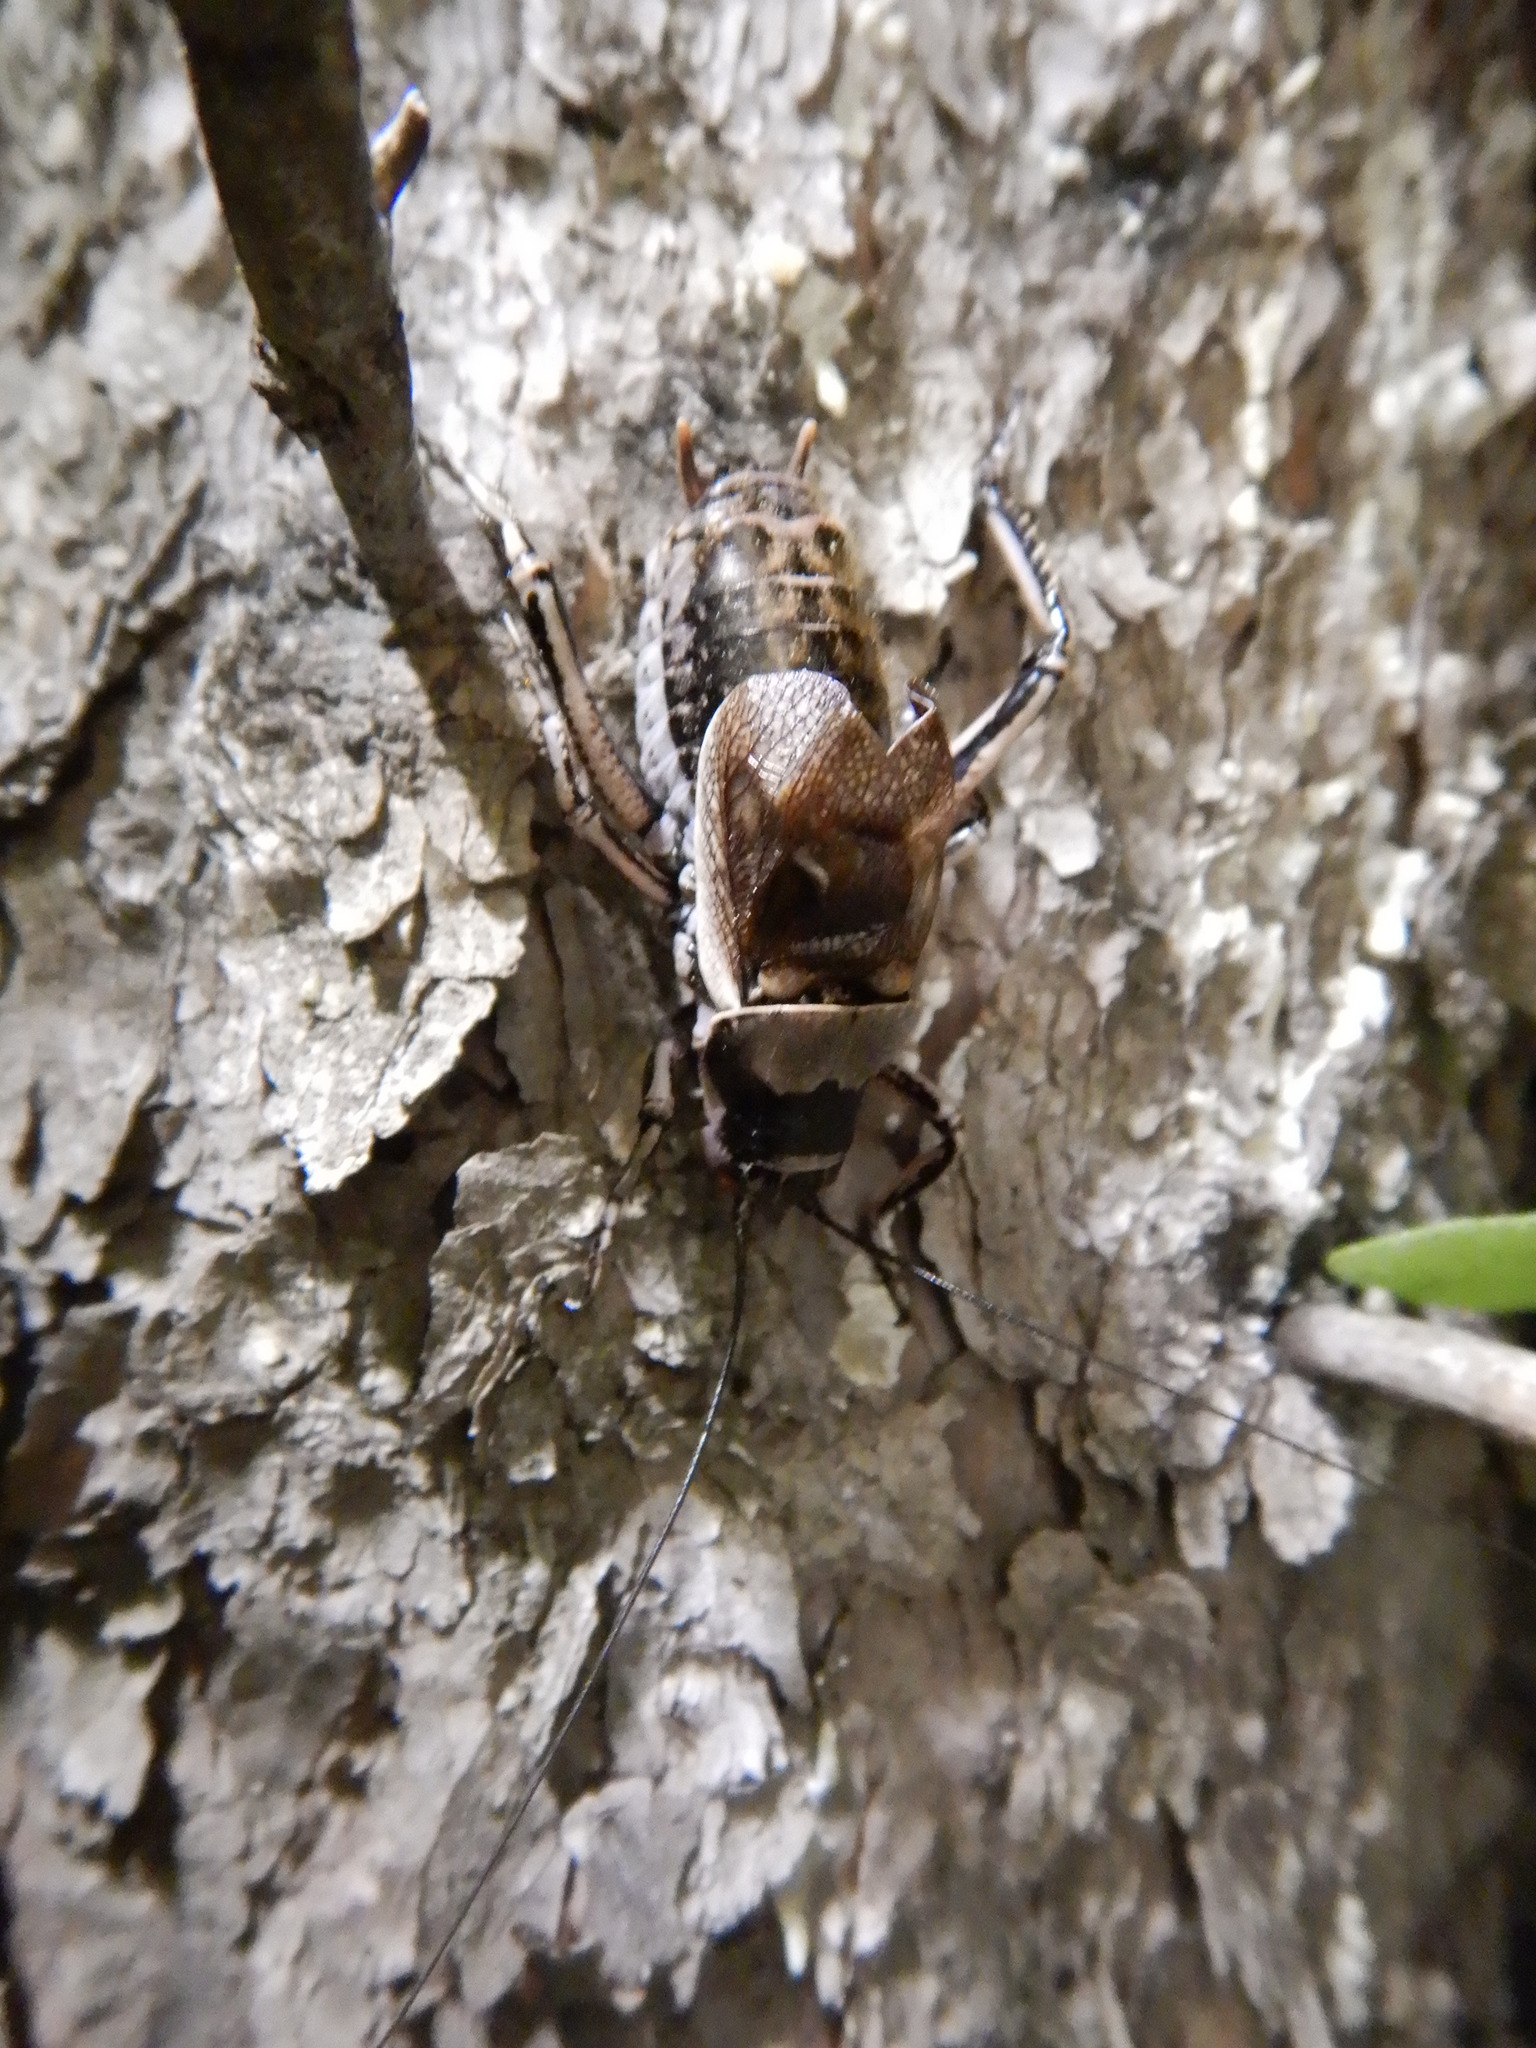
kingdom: Animalia
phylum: Arthropoda
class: Insecta
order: Orthoptera
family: Prophalangopsidae
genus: Cyphoderris
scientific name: Cyphoderris monstrosa
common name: Great grig
